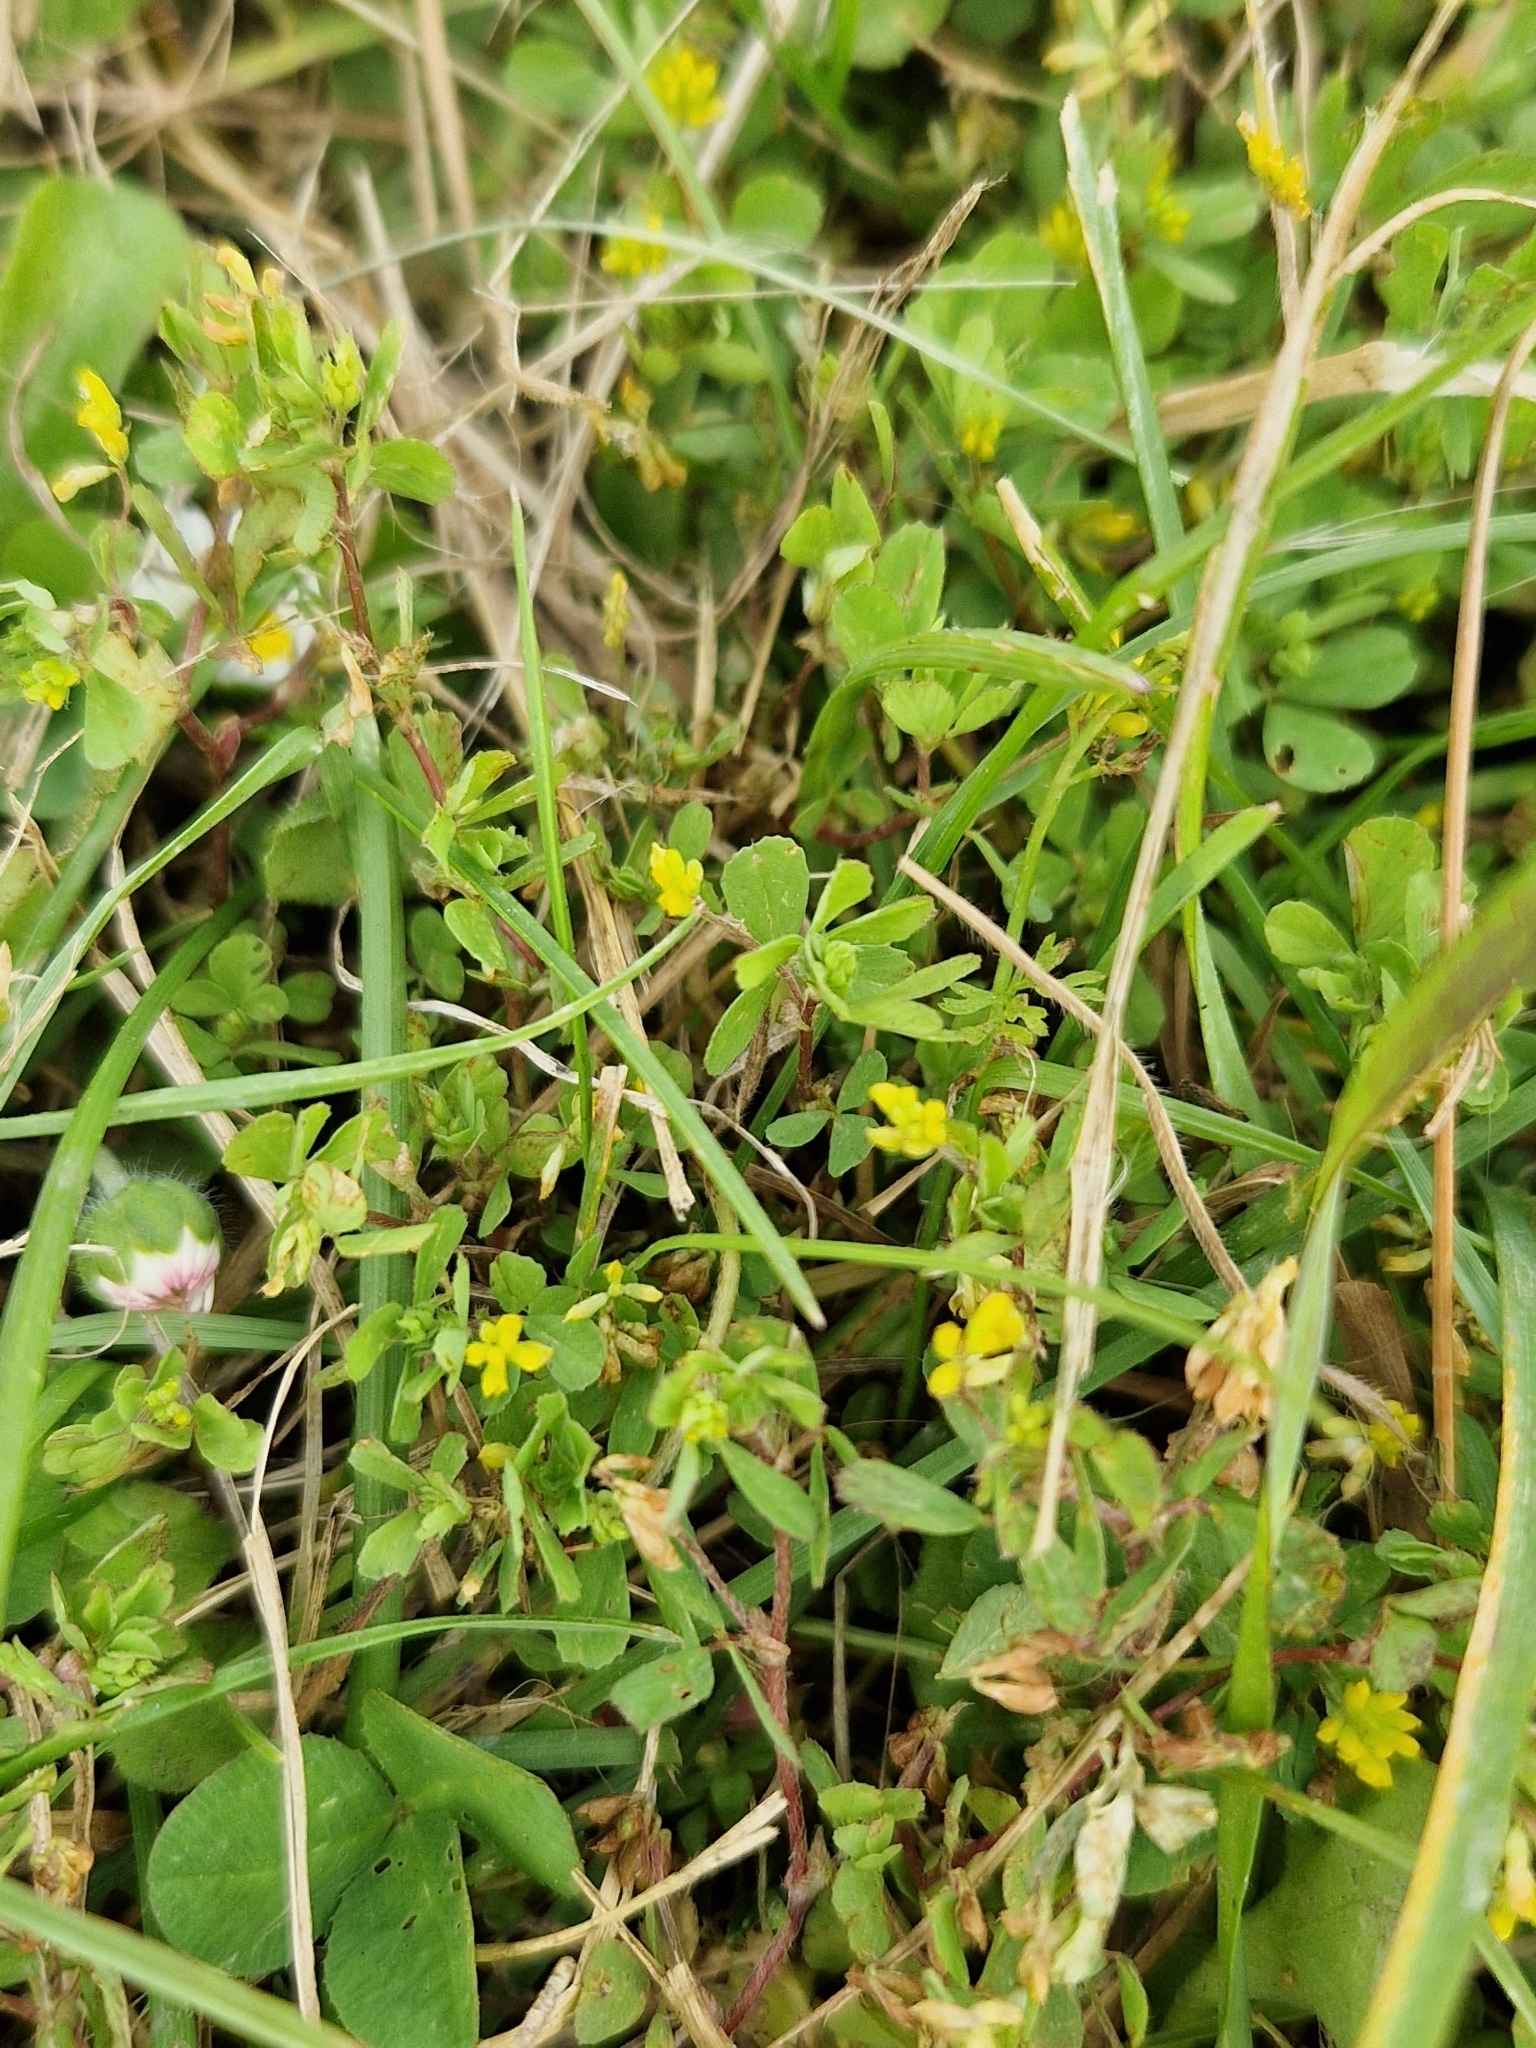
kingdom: Plantae
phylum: Tracheophyta
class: Magnoliopsida
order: Fabales
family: Fabaceae
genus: Trifolium
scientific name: Trifolium dubium
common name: Suckling clover
